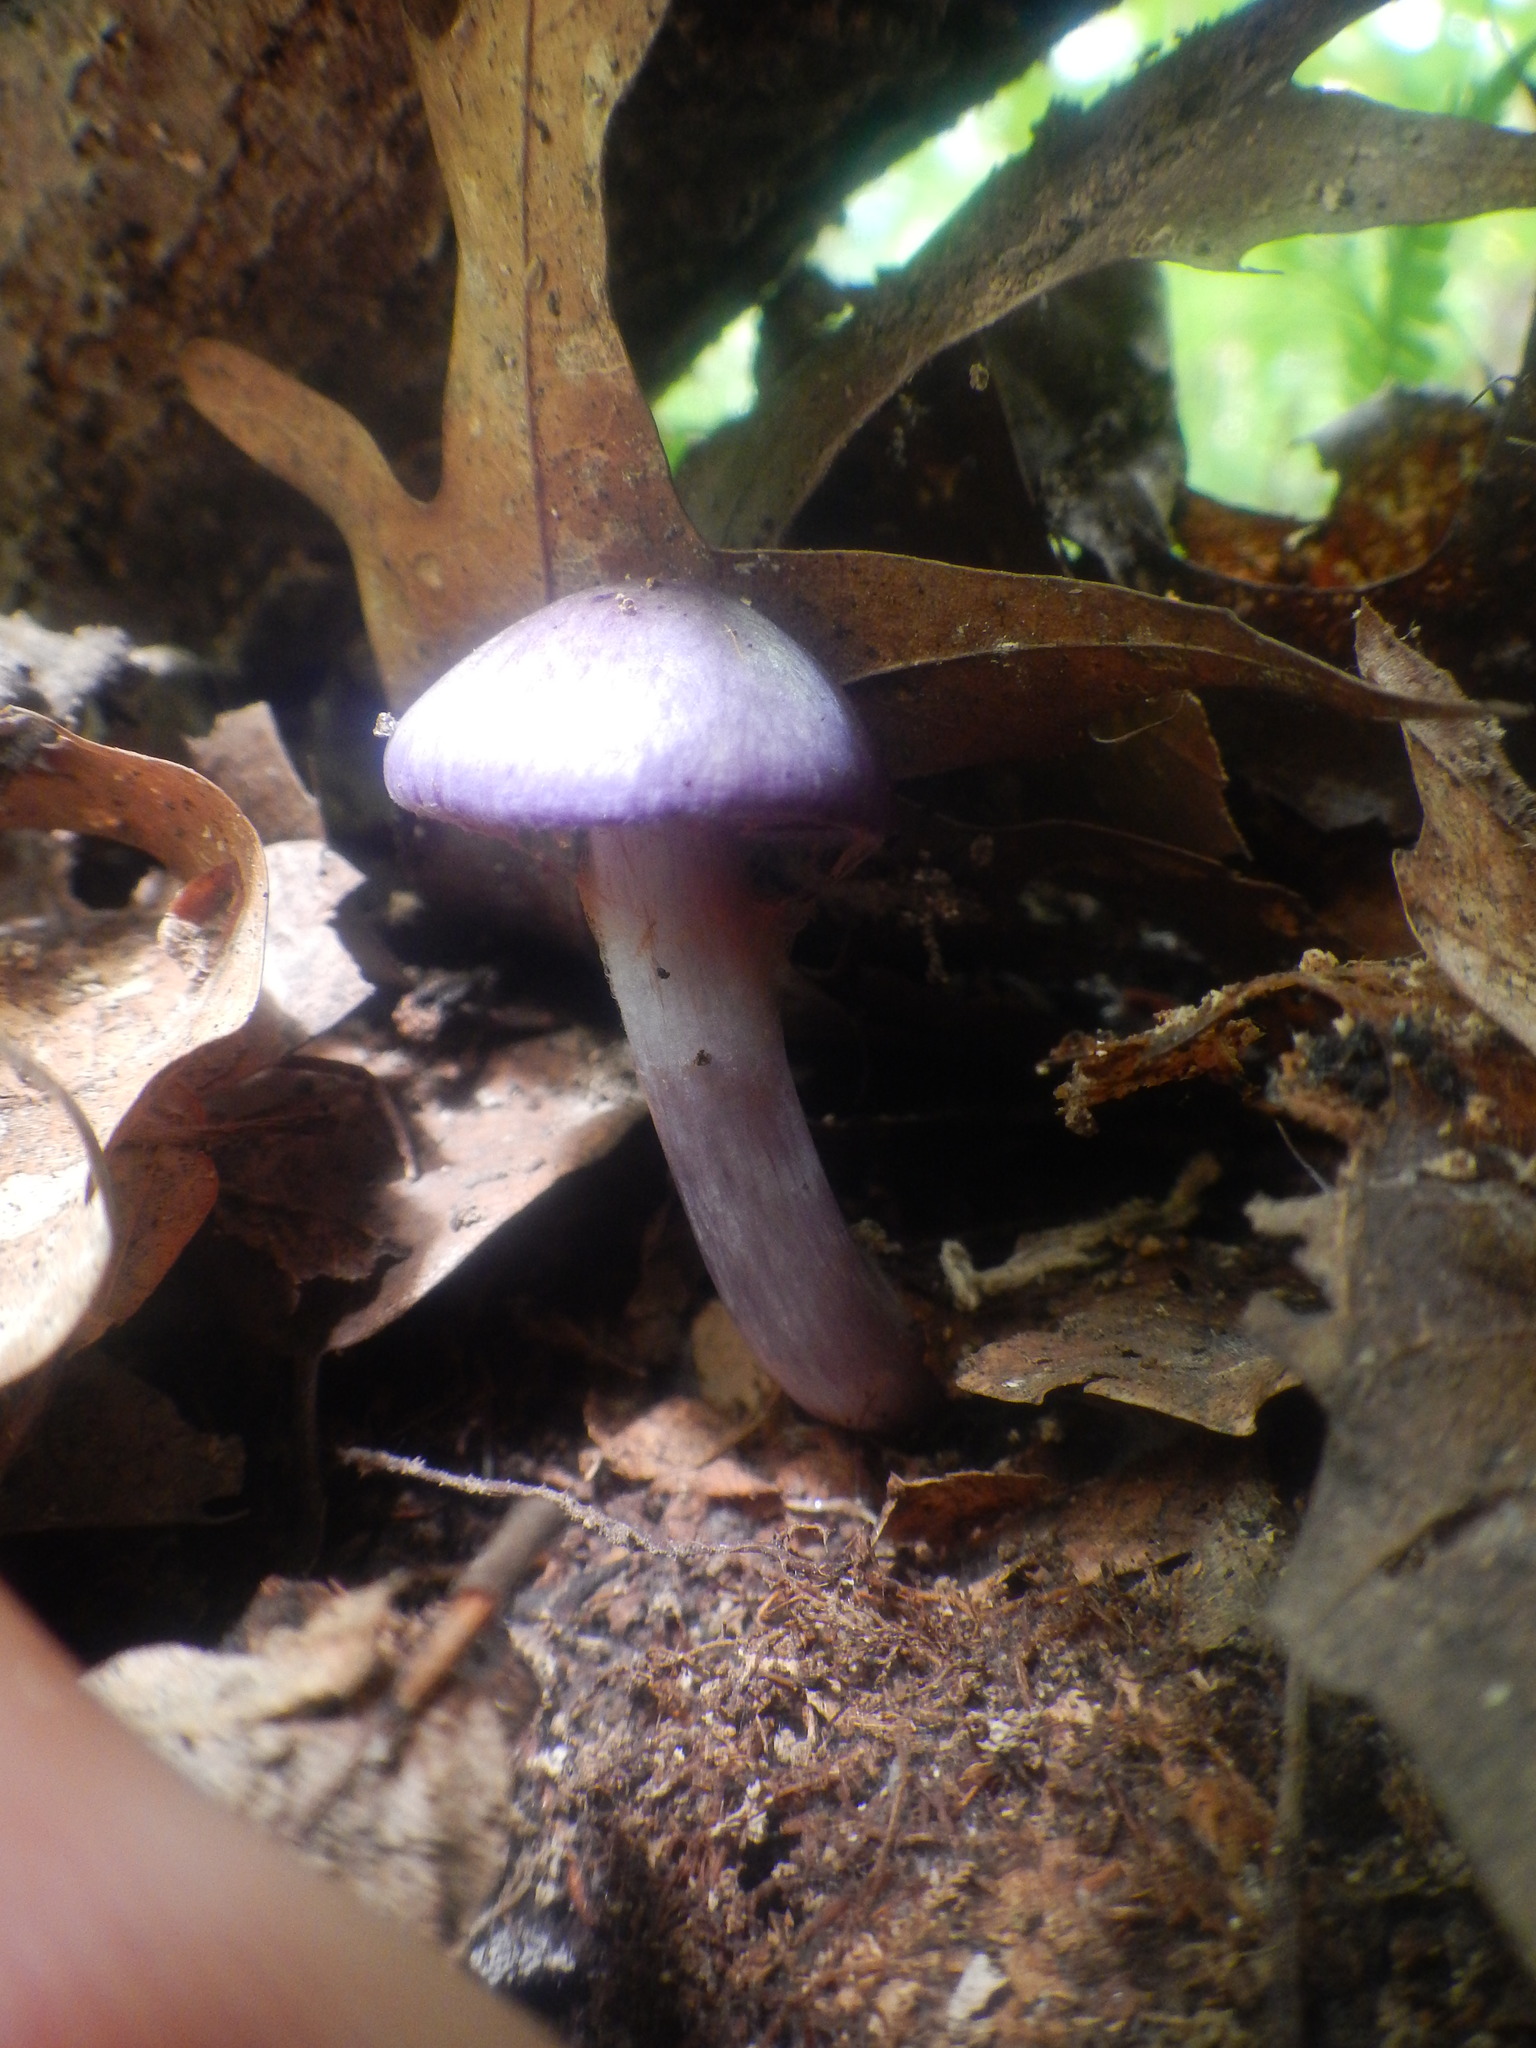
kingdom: Fungi
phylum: Basidiomycota
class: Agaricomycetes
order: Agaricales
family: Cortinariaceae
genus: Cortinarius
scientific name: Cortinarius iodes
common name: Viscid violet cort
